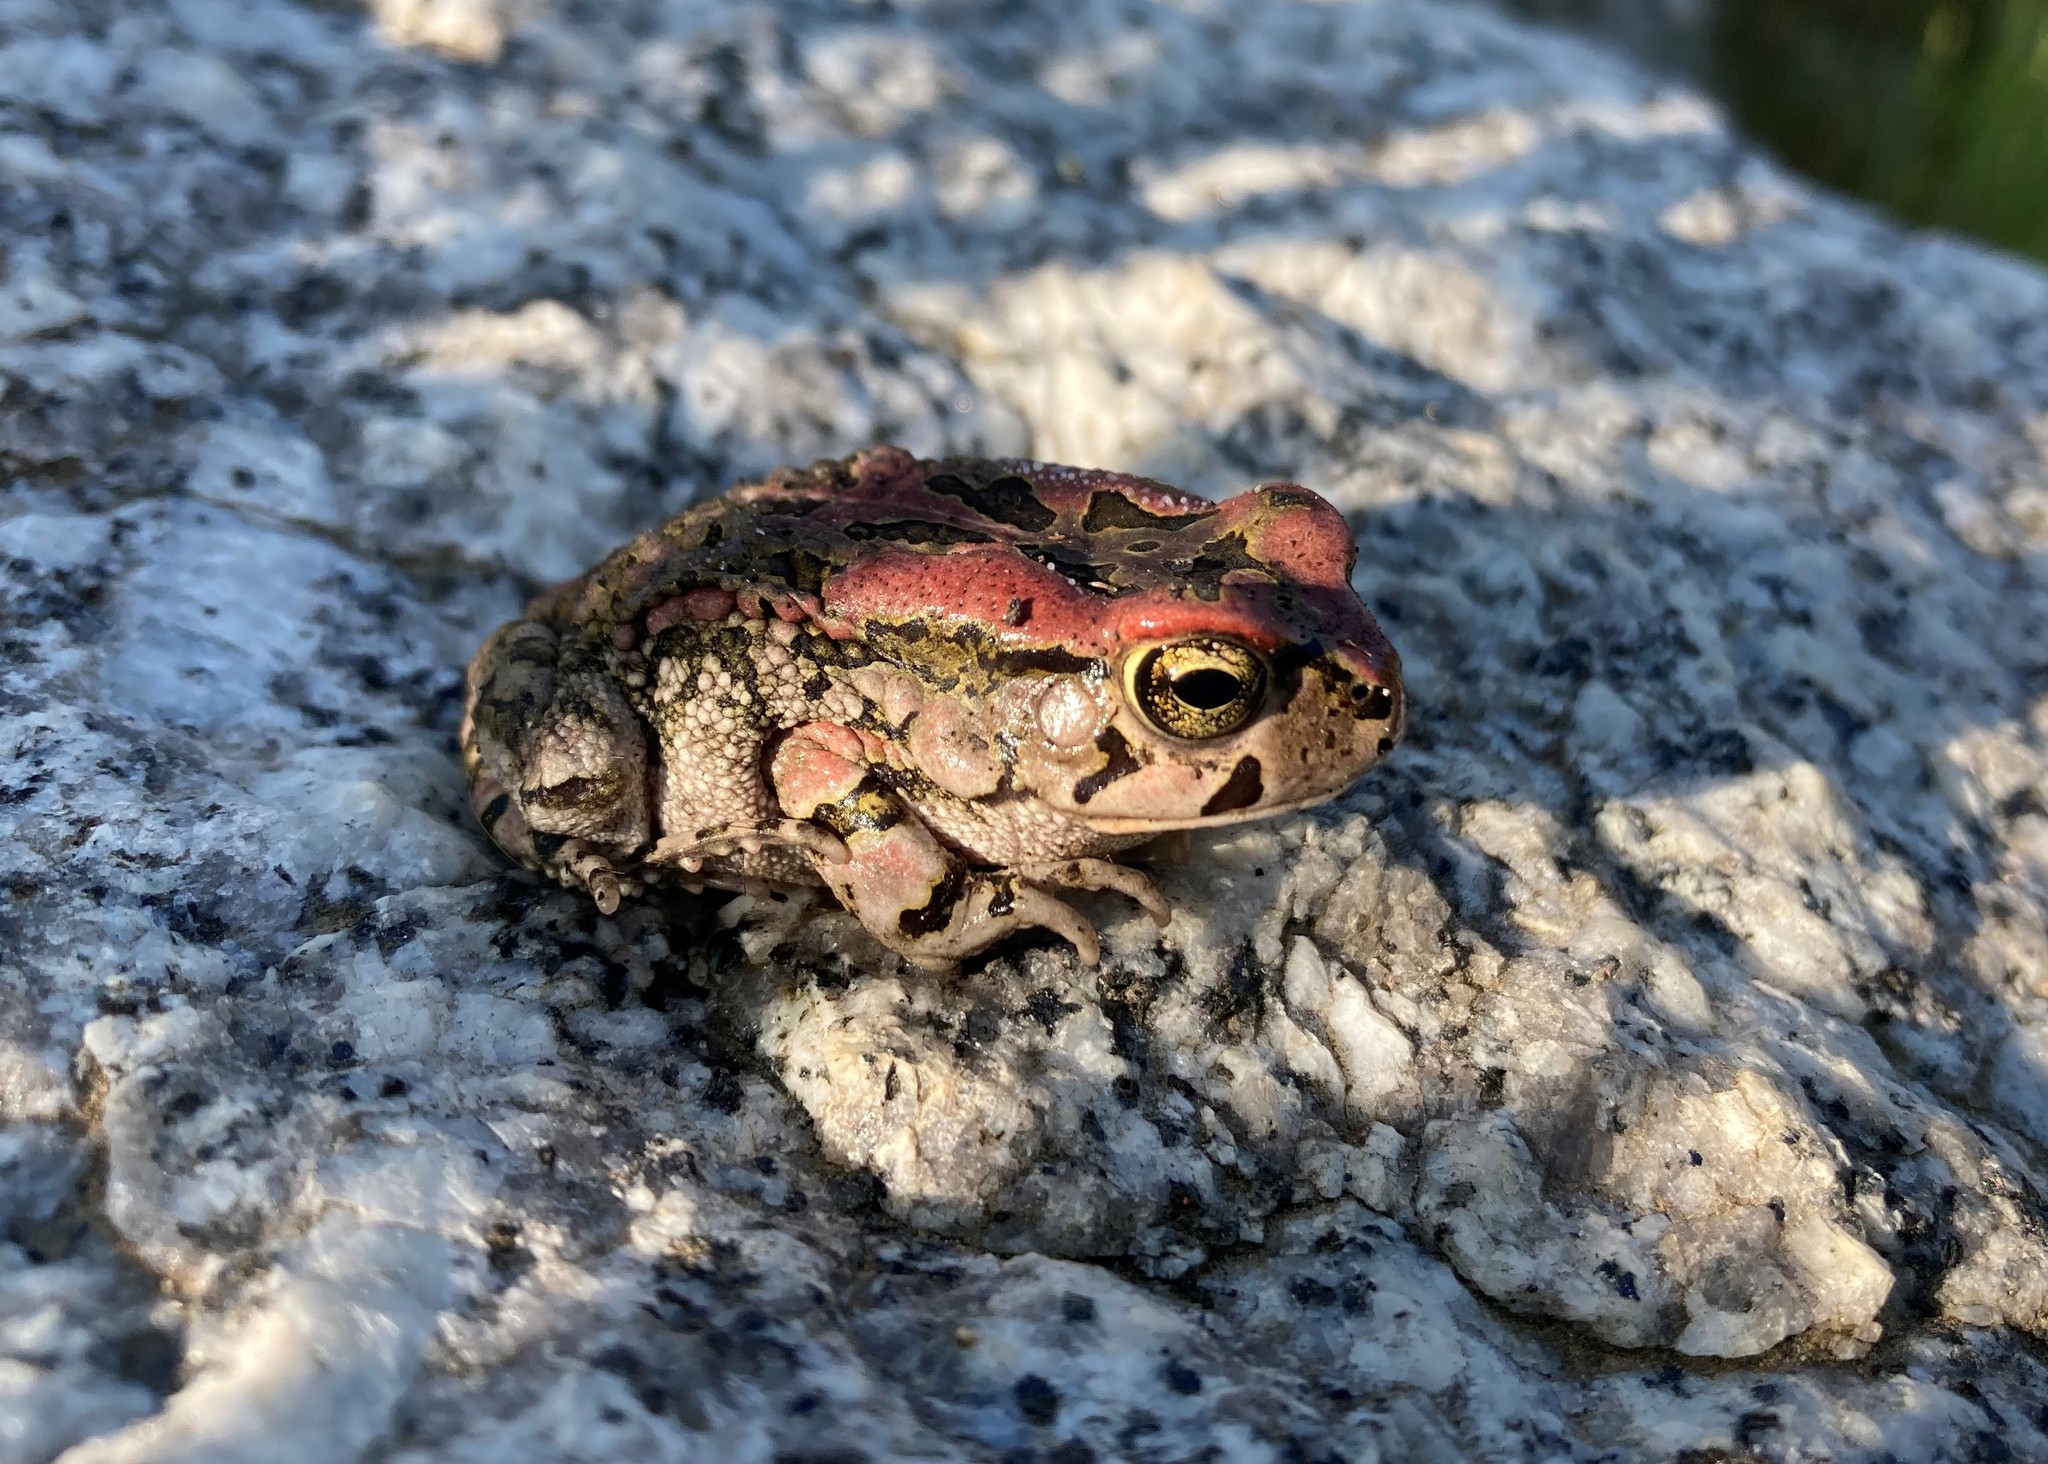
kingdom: Animalia
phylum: Chordata
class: Amphibia
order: Anura
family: Bufonidae
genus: Sclerophrys
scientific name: Sclerophrys capensis
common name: Ranger’s toad
